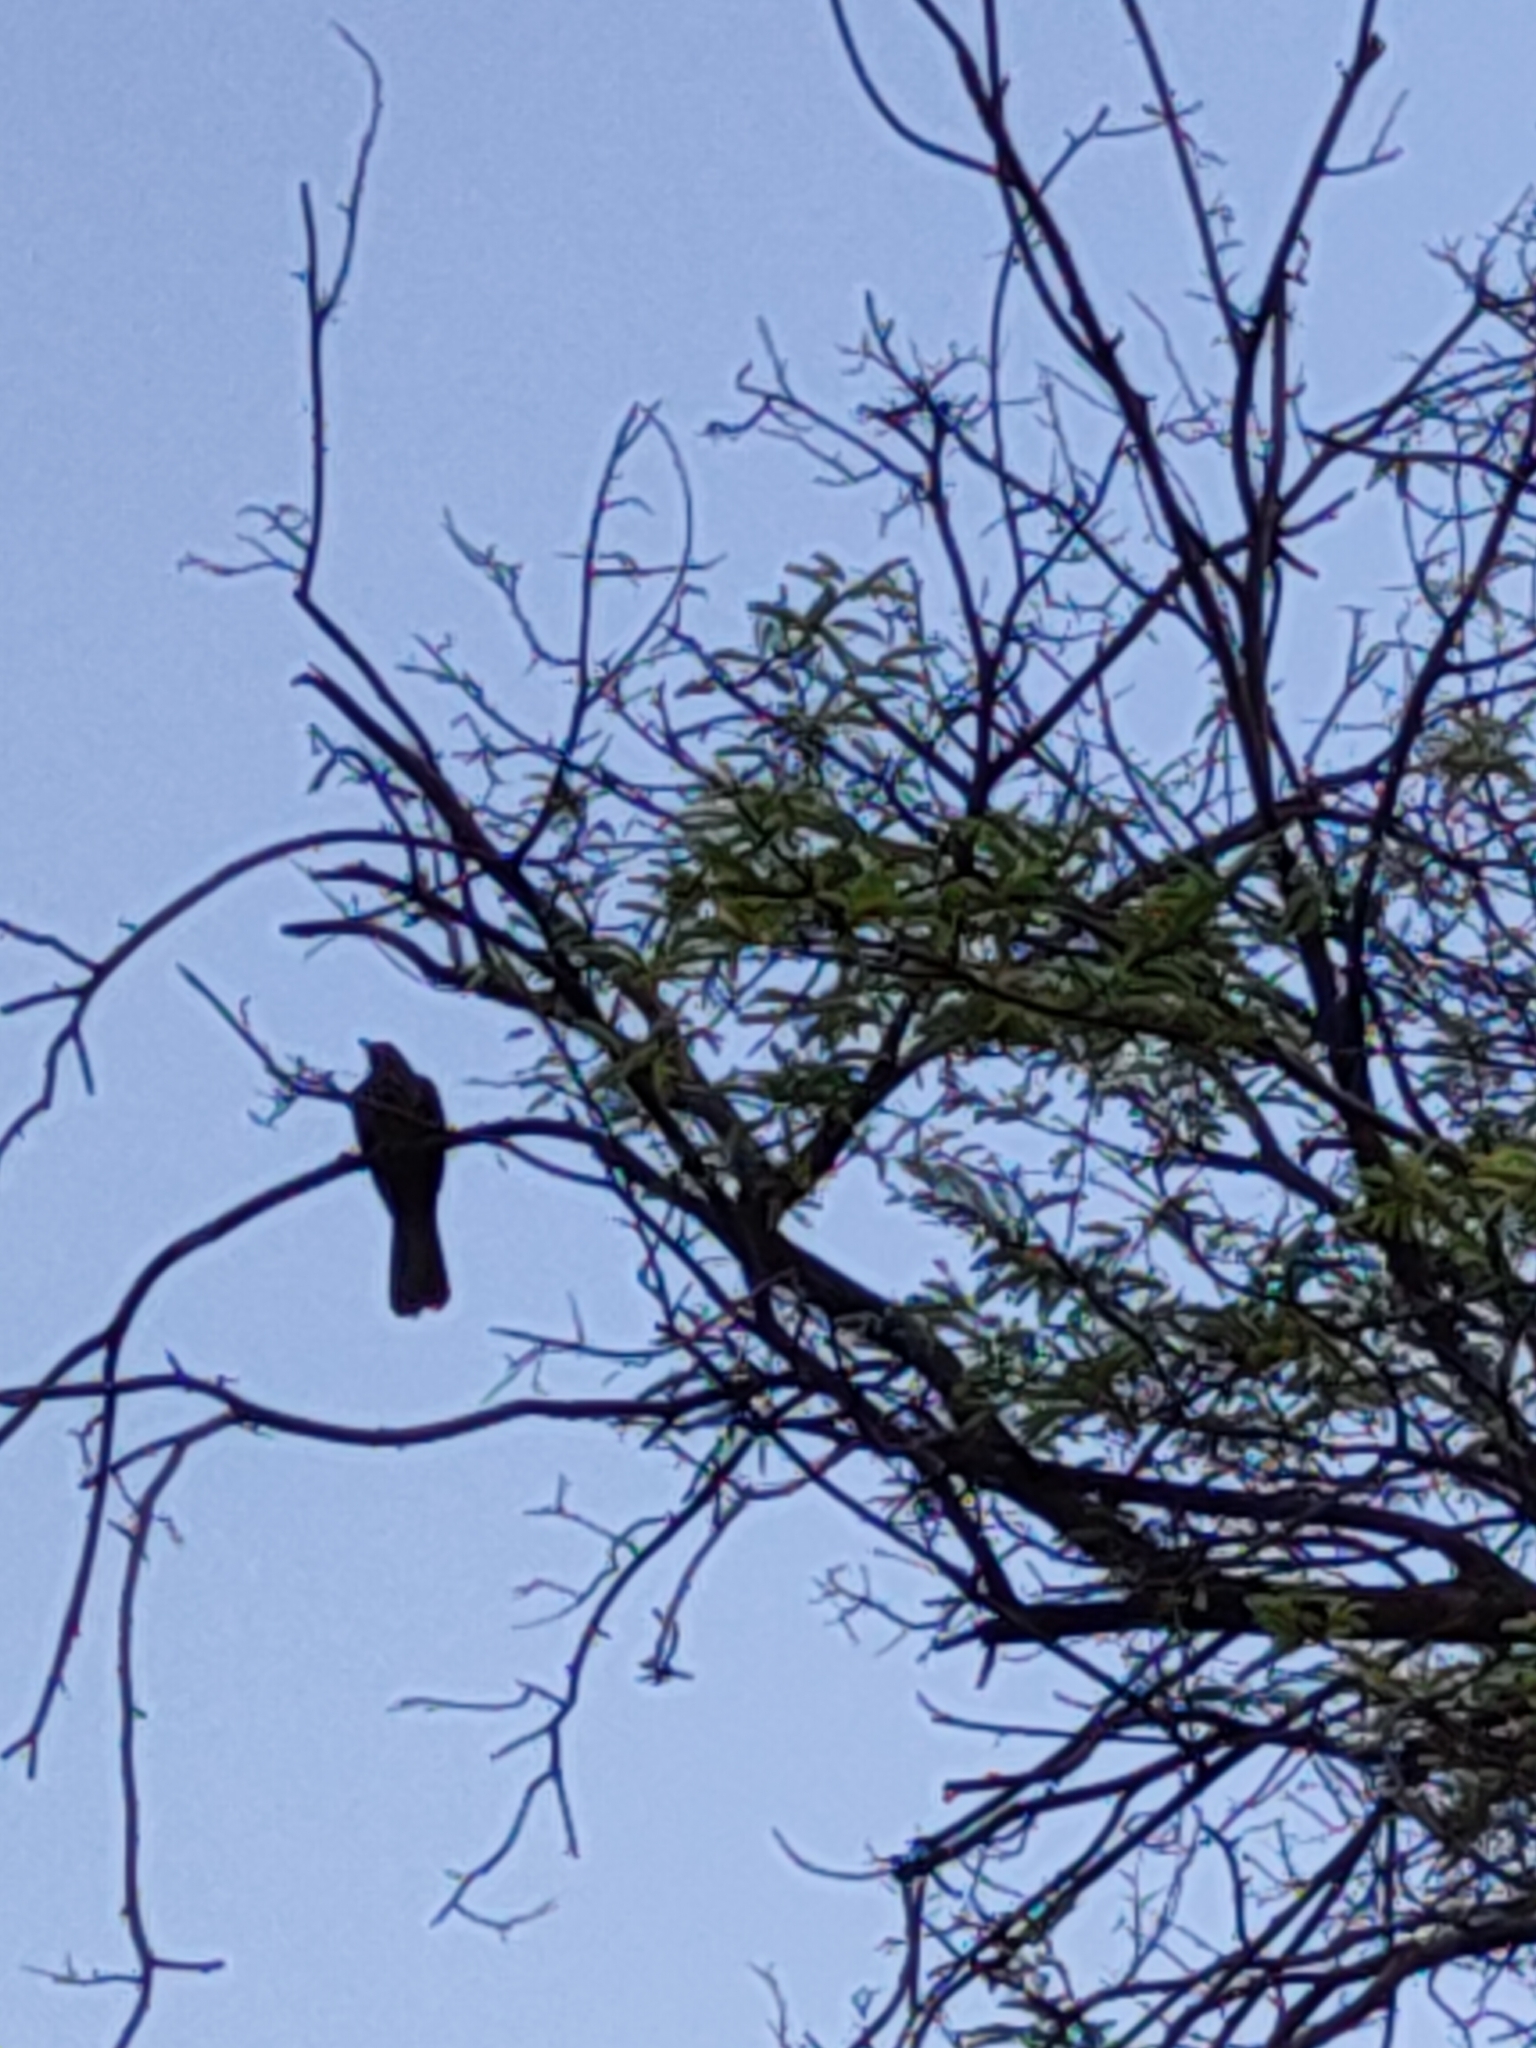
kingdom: Animalia
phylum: Chordata
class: Aves
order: Cuculiformes
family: Cuculidae
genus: Eudynamys
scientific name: Eudynamys scolopaceus
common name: Asian koel
